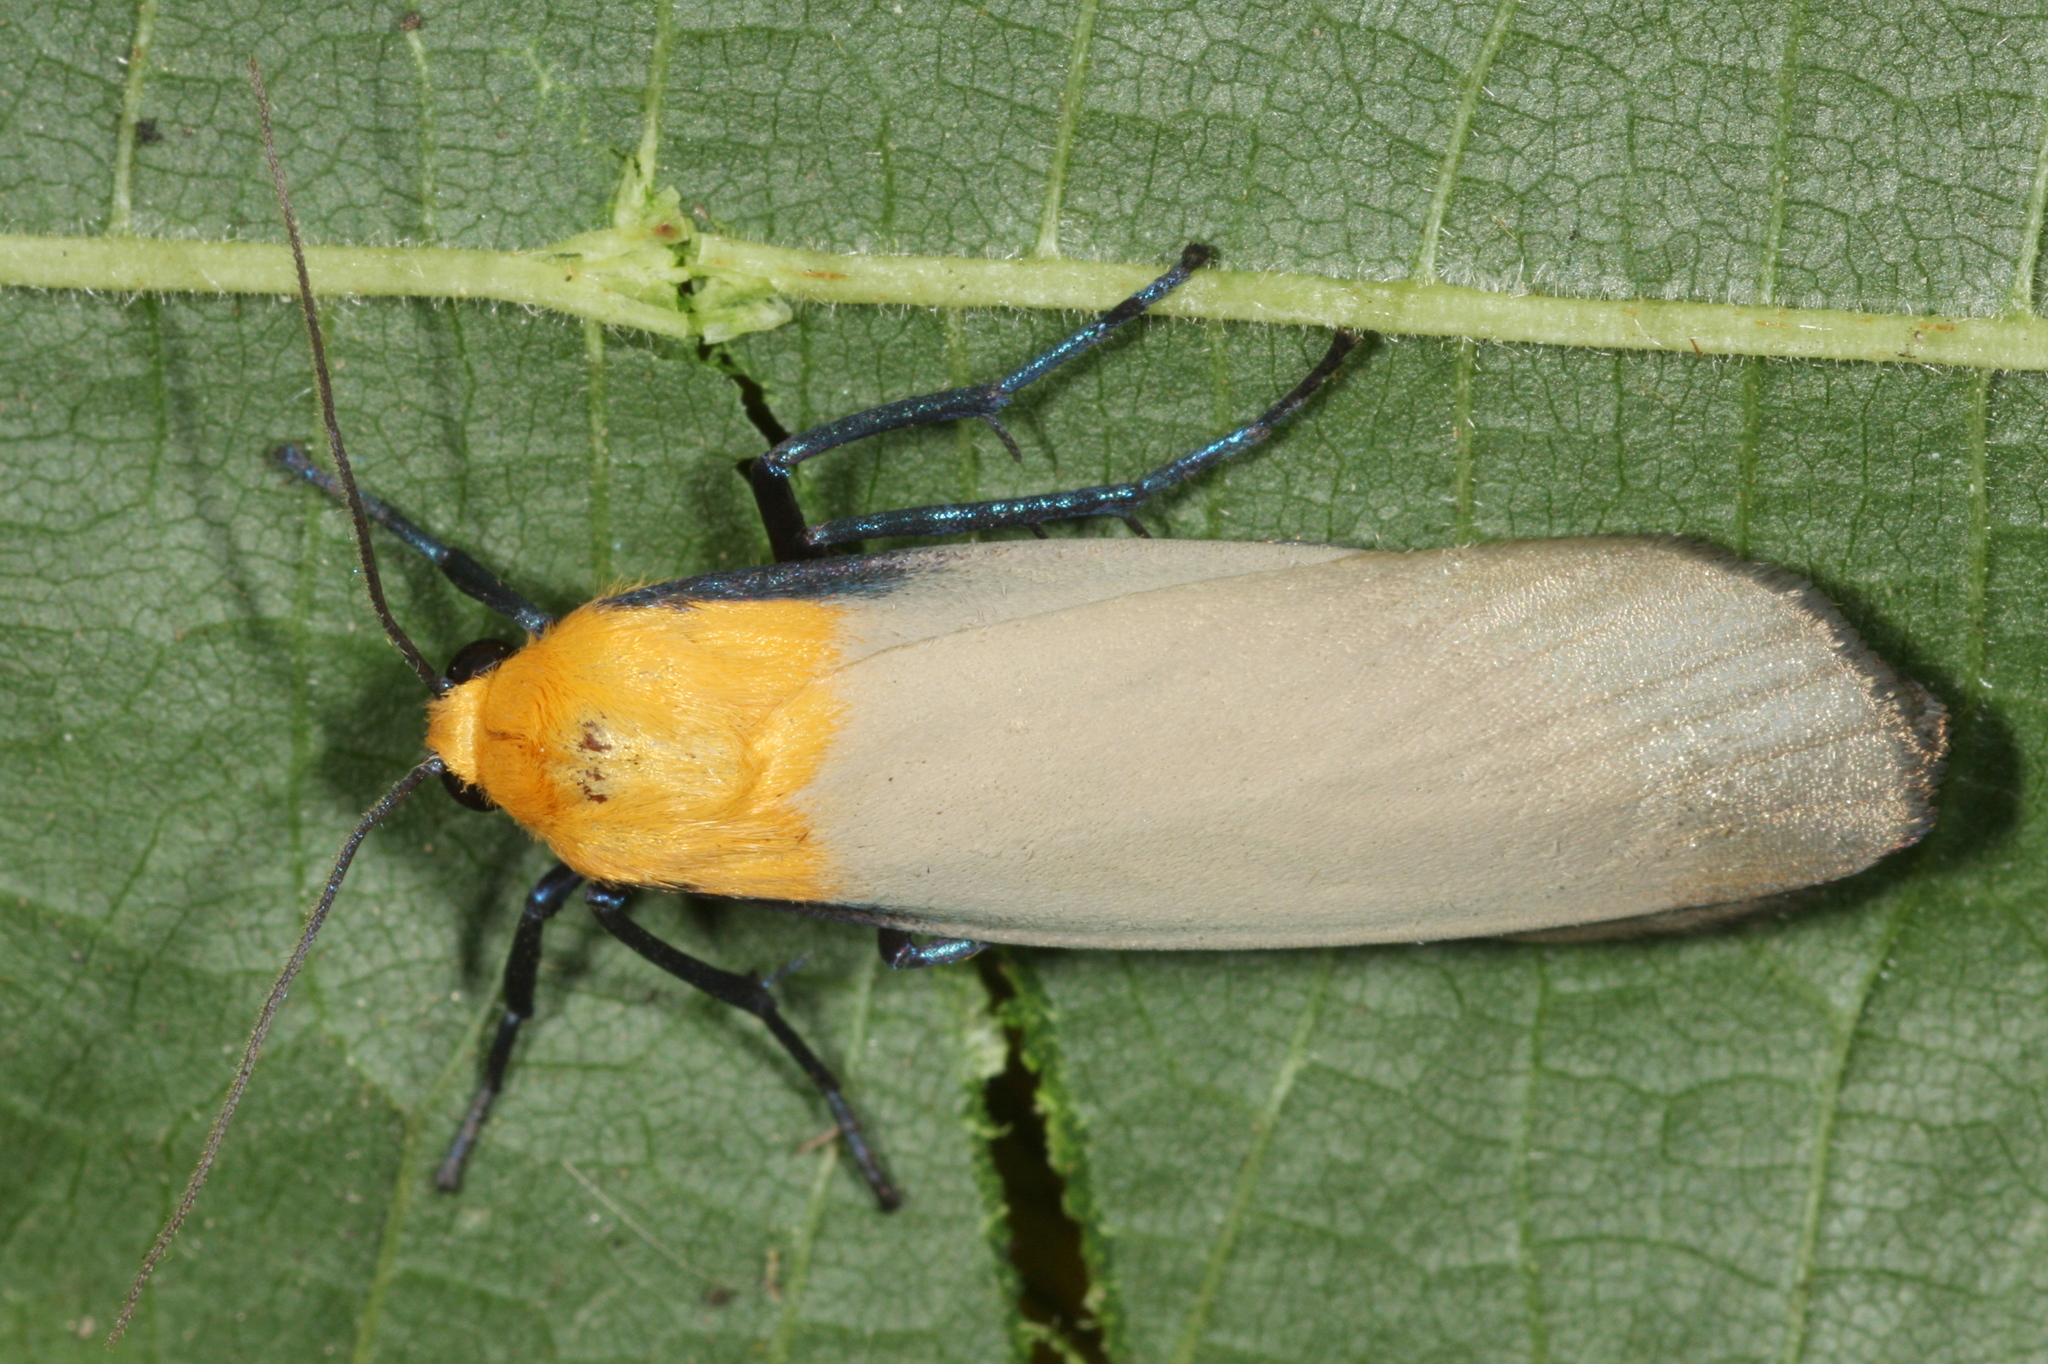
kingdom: Animalia
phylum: Arthropoda
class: Insecta
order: Lepidoptera
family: Erebidae
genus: Lithosia
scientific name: Lithosia quadra
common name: Four-spotted footman
